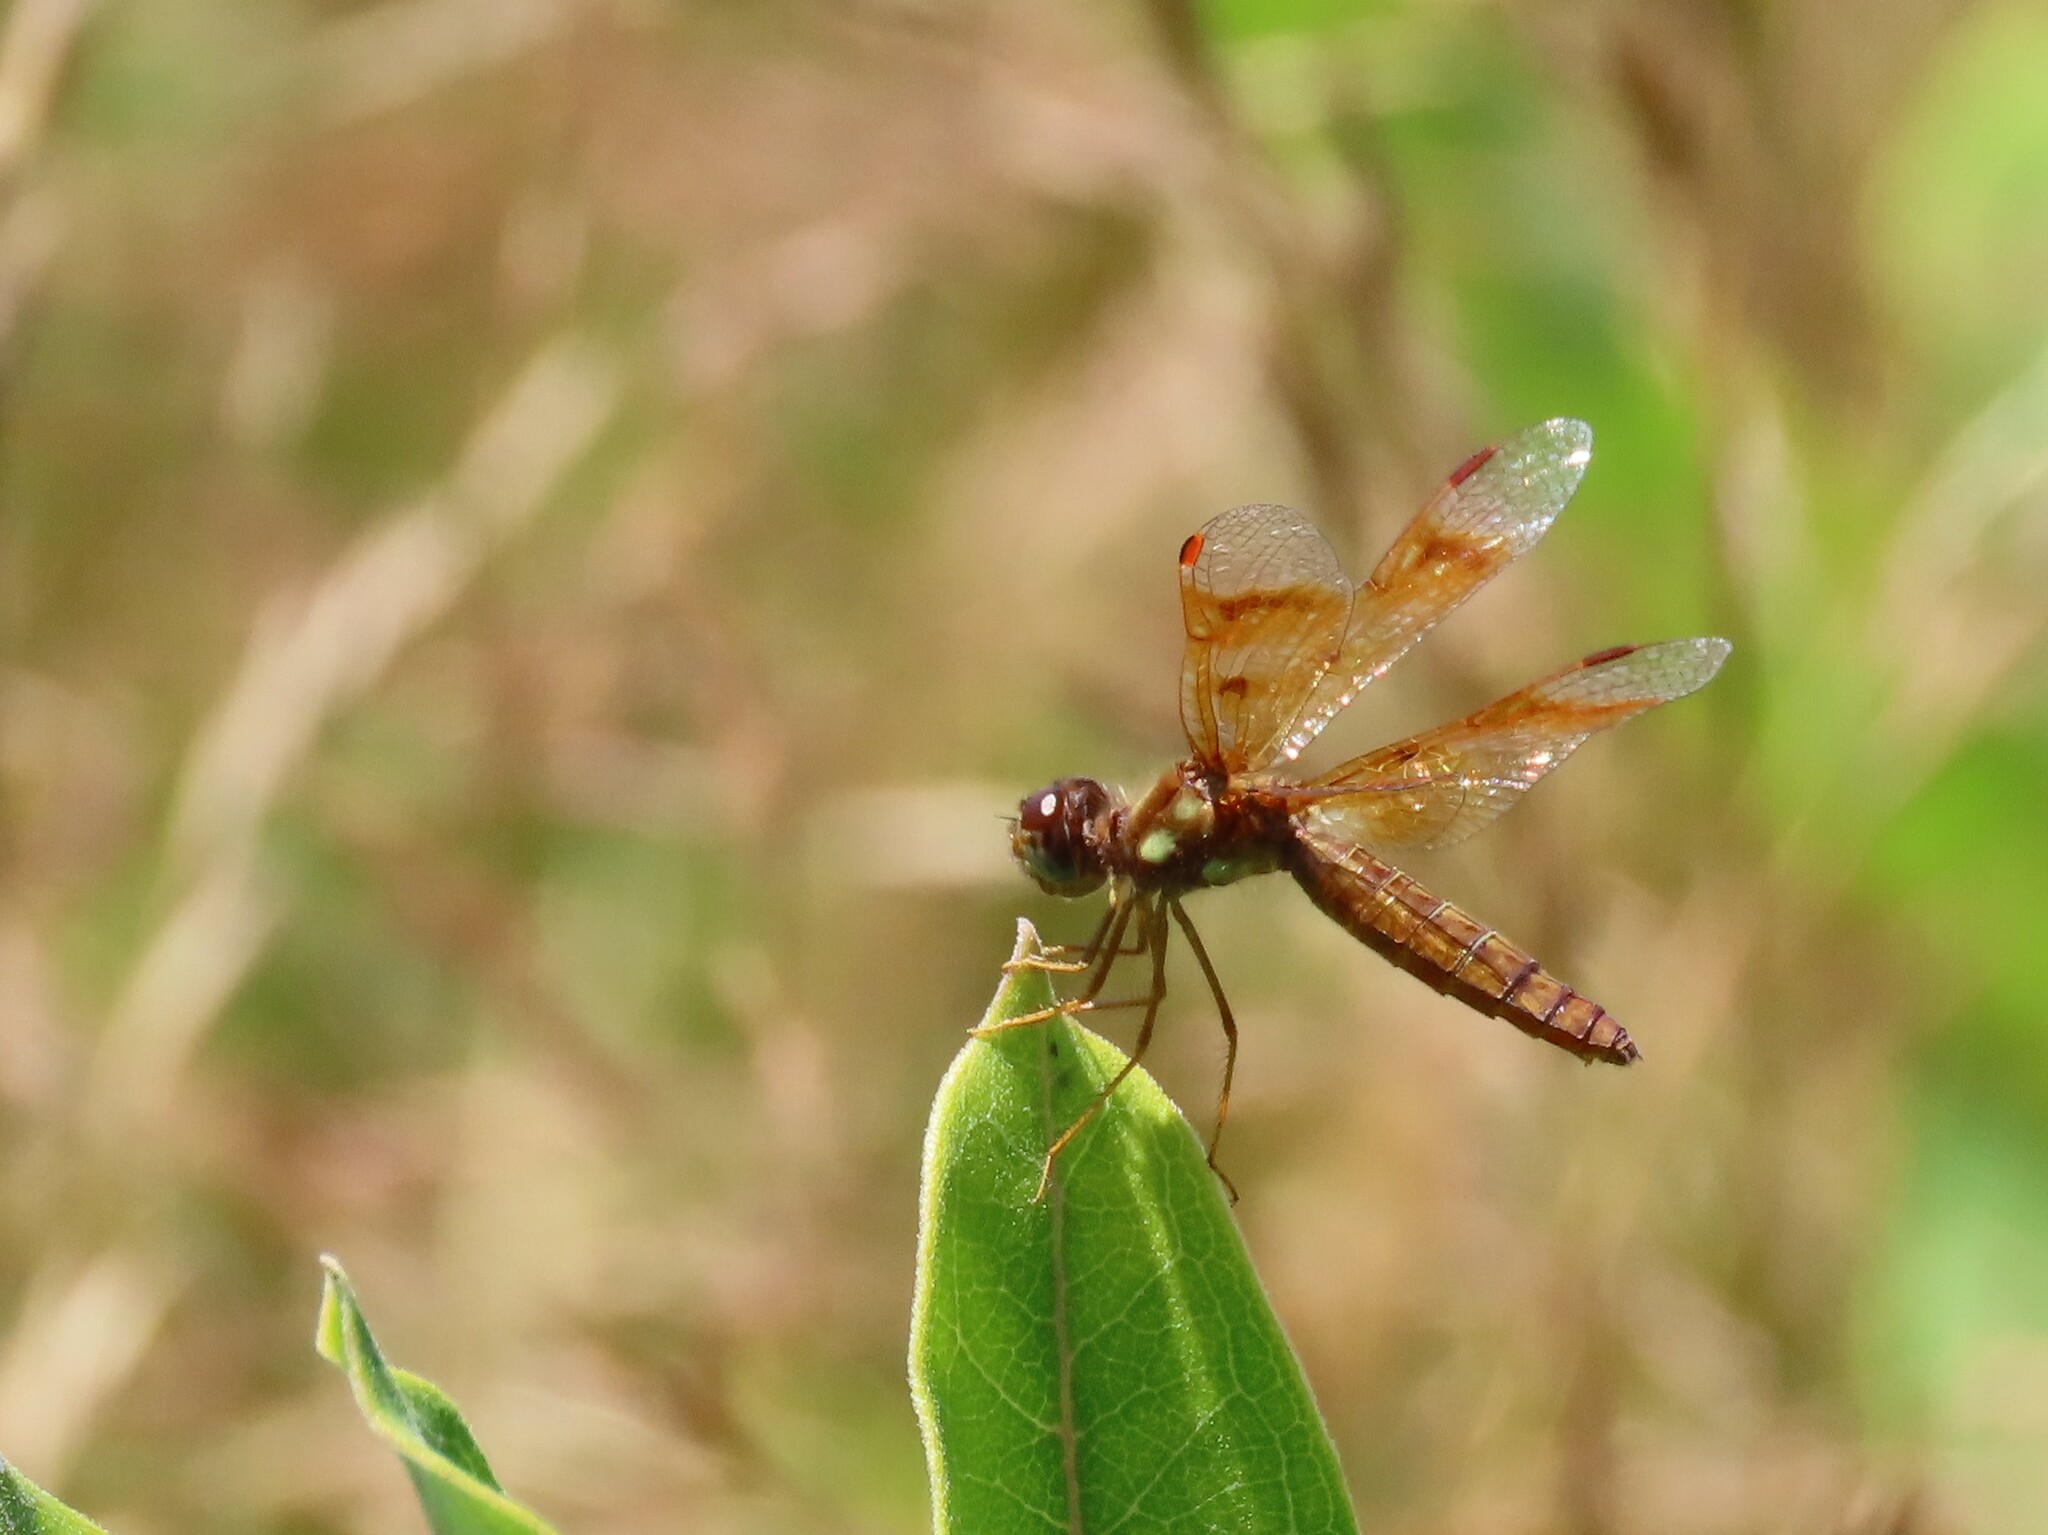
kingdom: Animalia
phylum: Arthropoda
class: Insecta
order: Odonata
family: Libellulidae
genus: Perithemis
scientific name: Perithemis tenera
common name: Eastern amberwing
